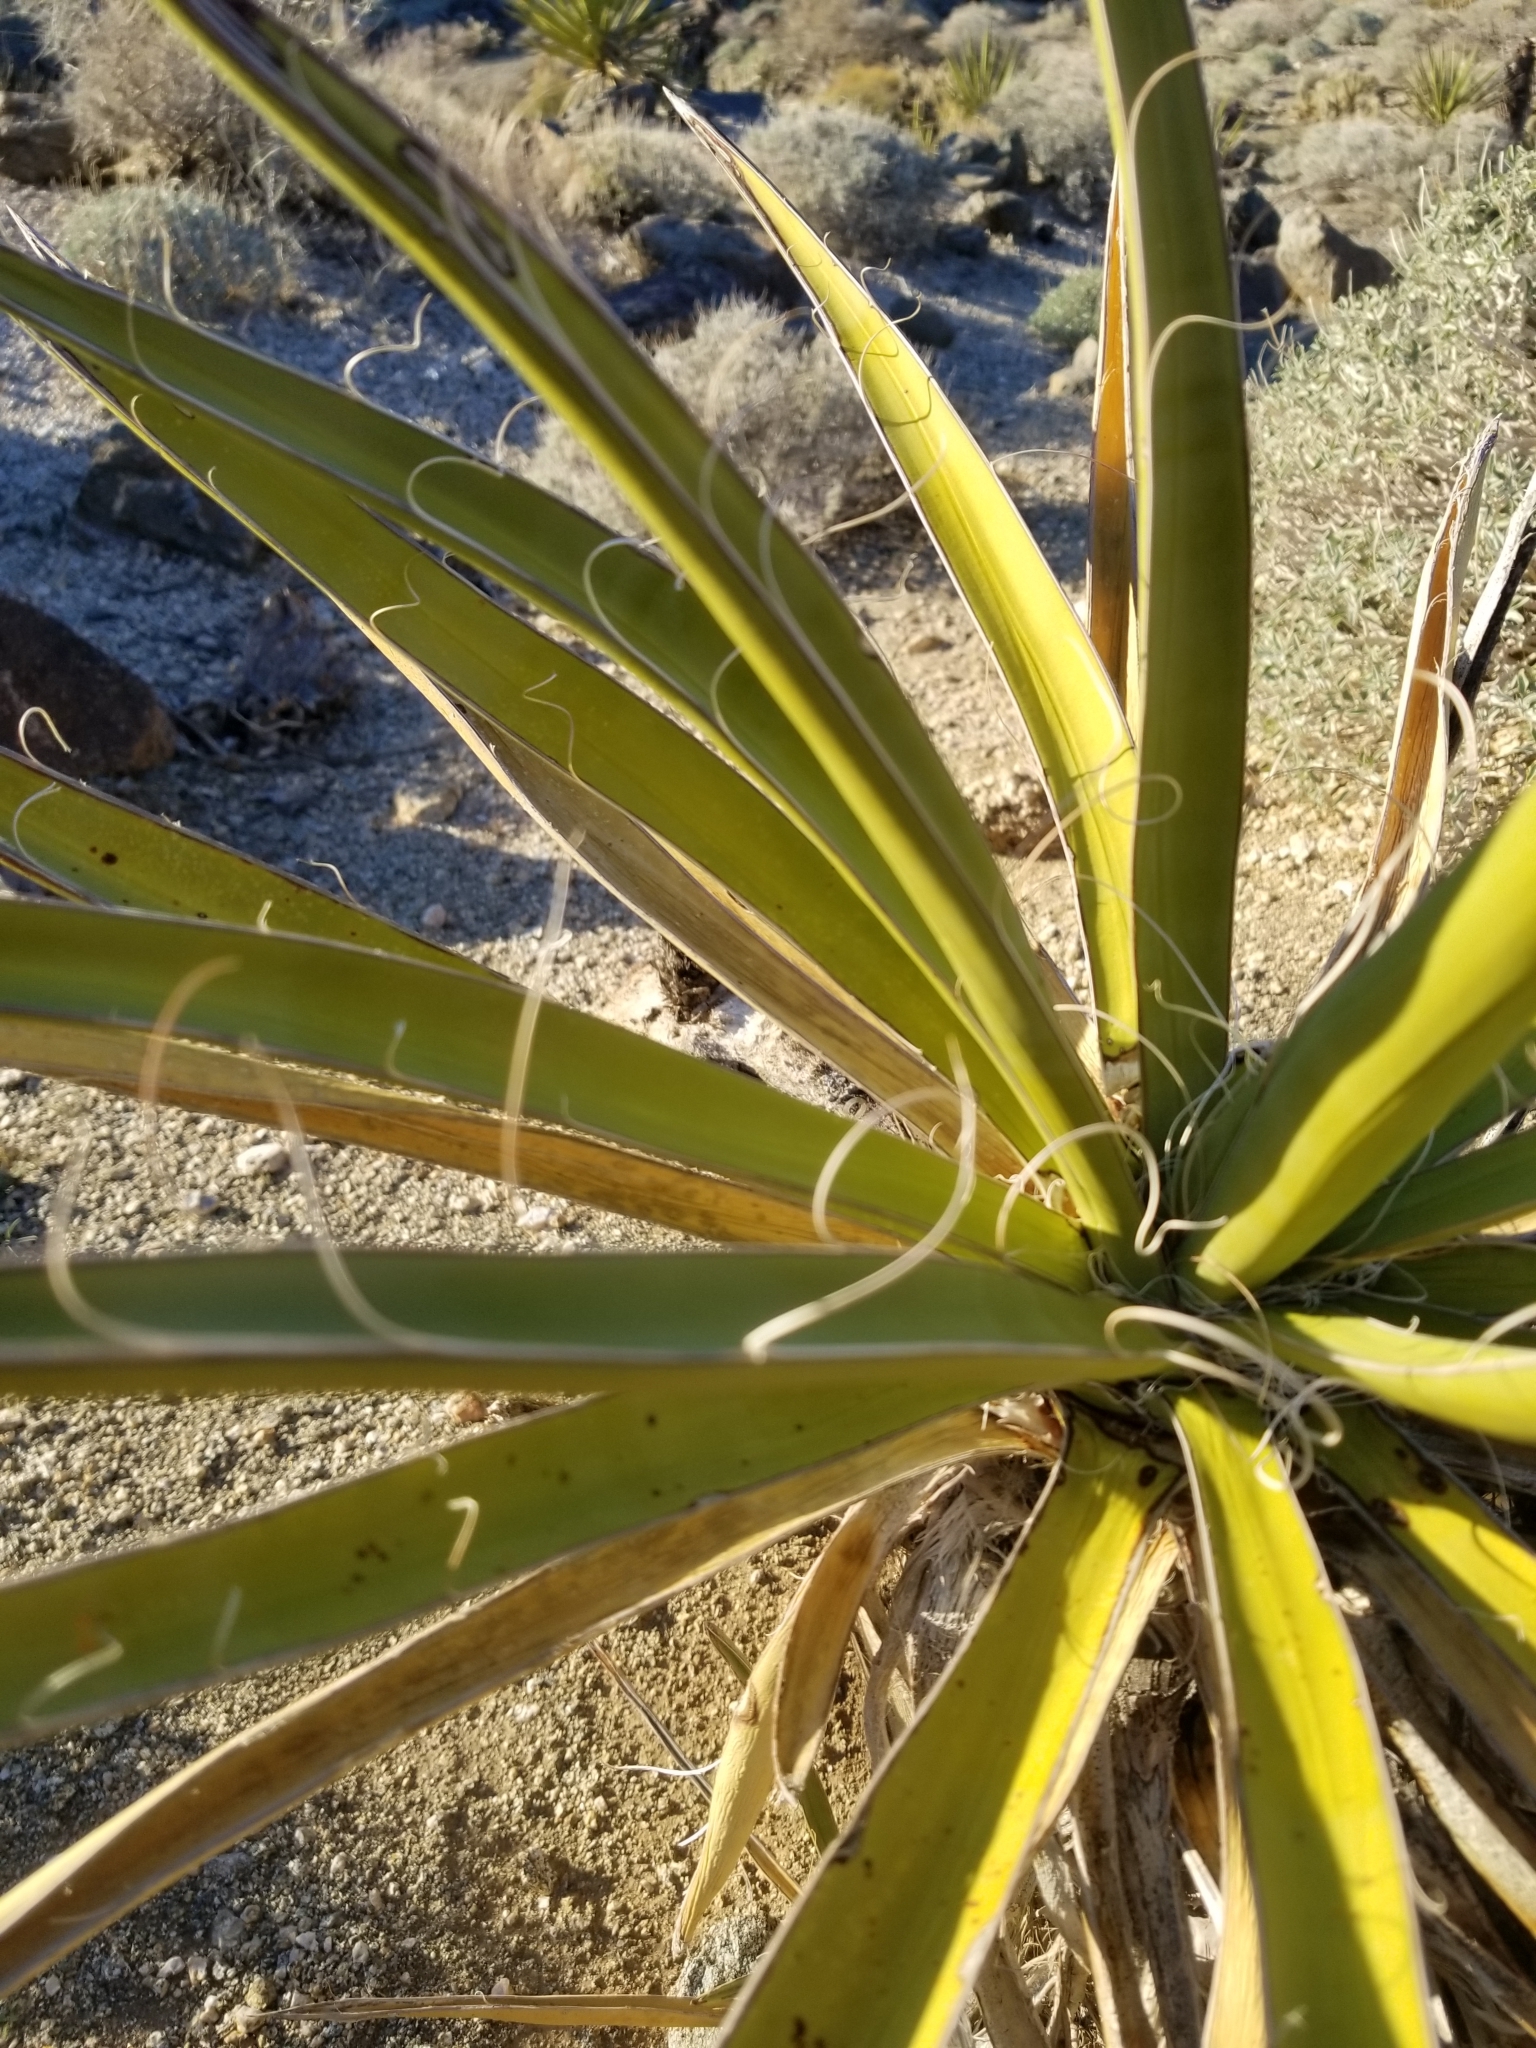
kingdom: Plantae
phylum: Tracheophyta
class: Liliopsida
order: Asparagales
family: Asparagaceae
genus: Yucca
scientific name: Yucca schidigera
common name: Mojave yucca
